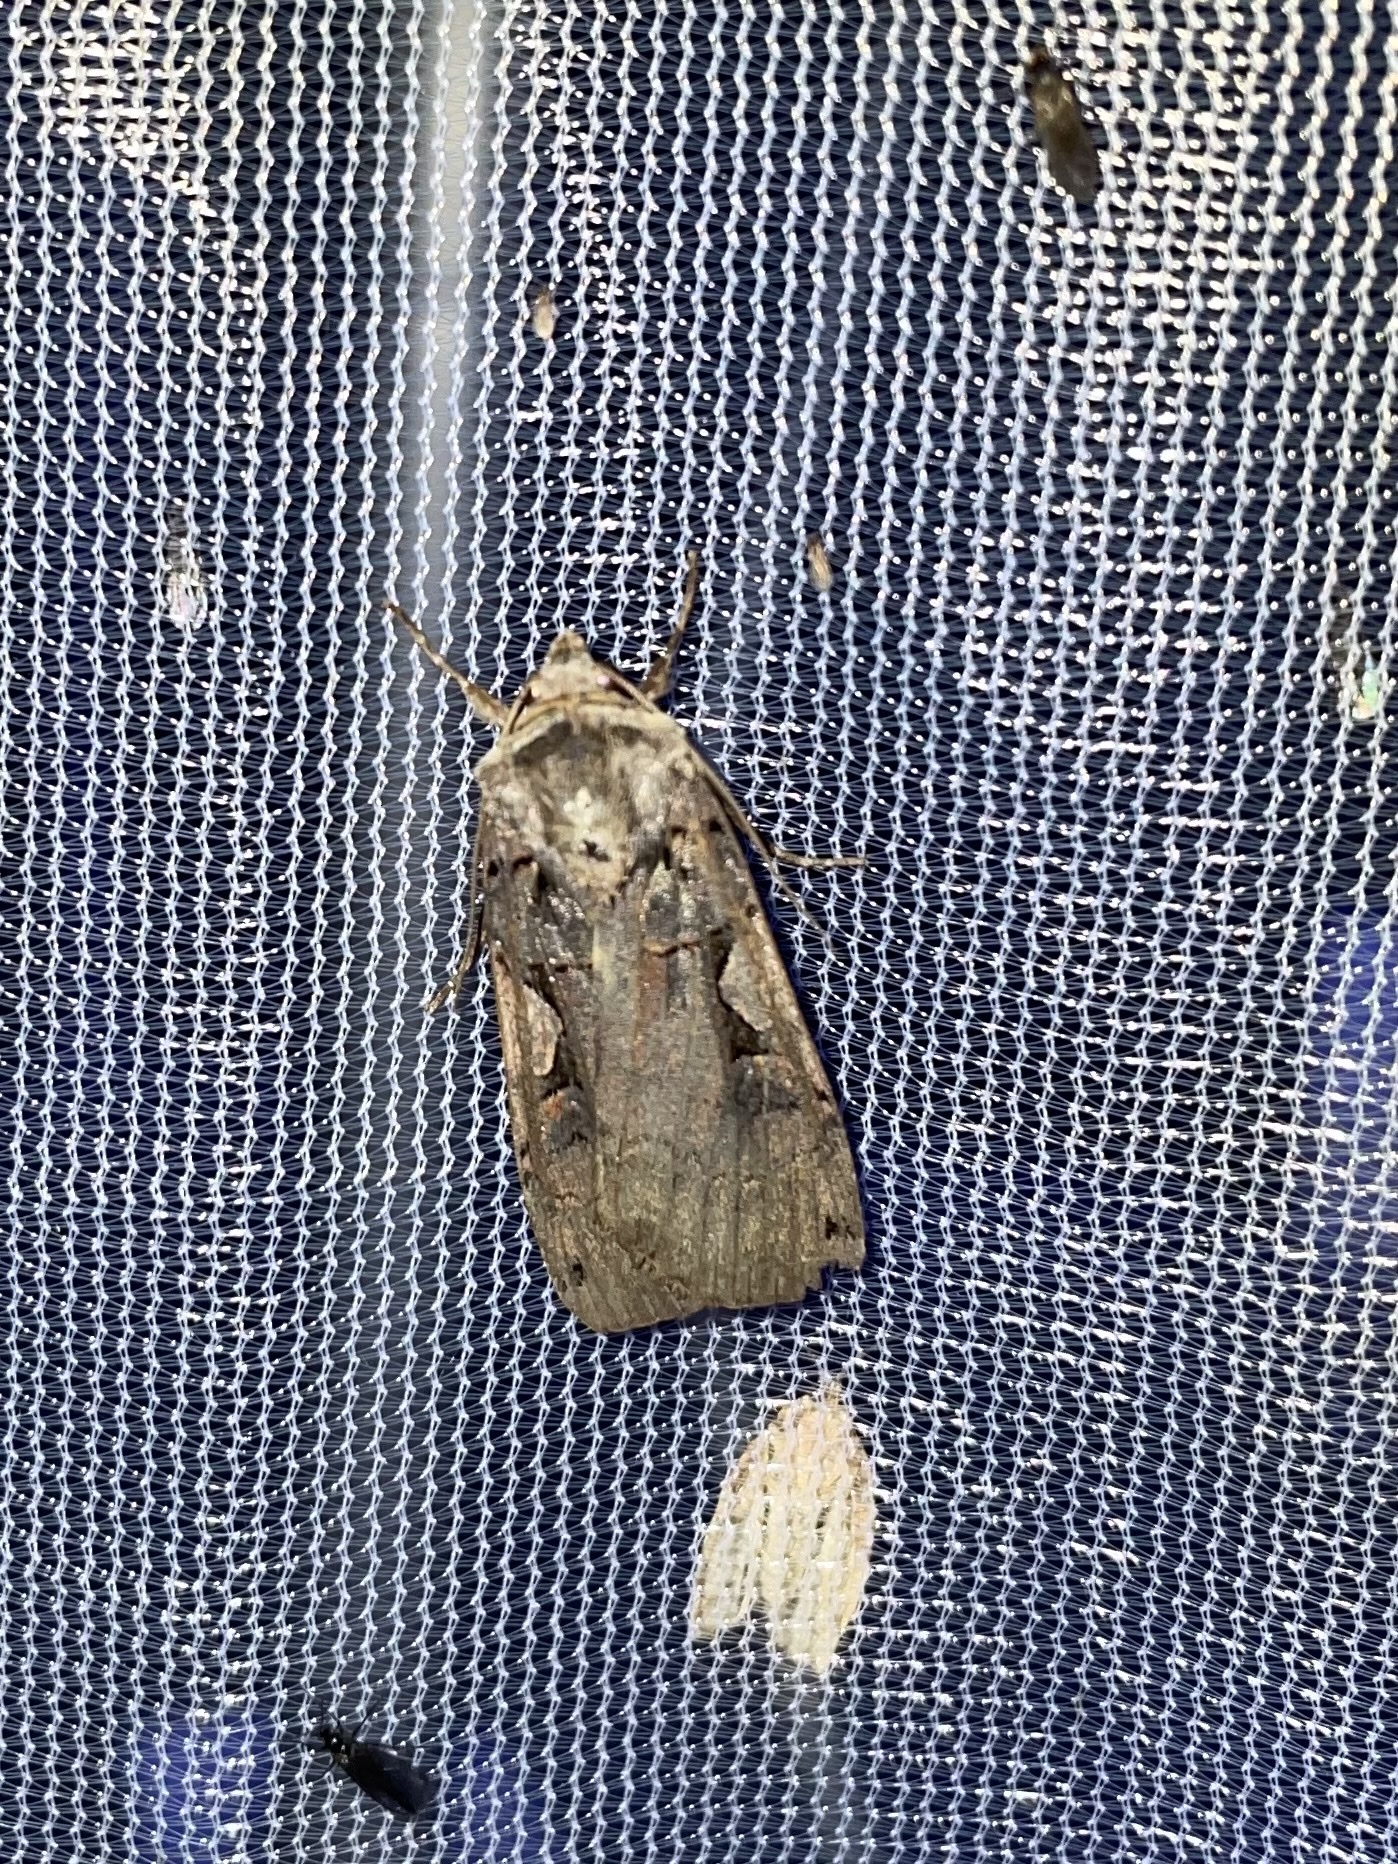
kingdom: Animalia
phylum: Arthropoda
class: Insecta
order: Lepidoptera
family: Noctuidae
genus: Xestia
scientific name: Xestia
